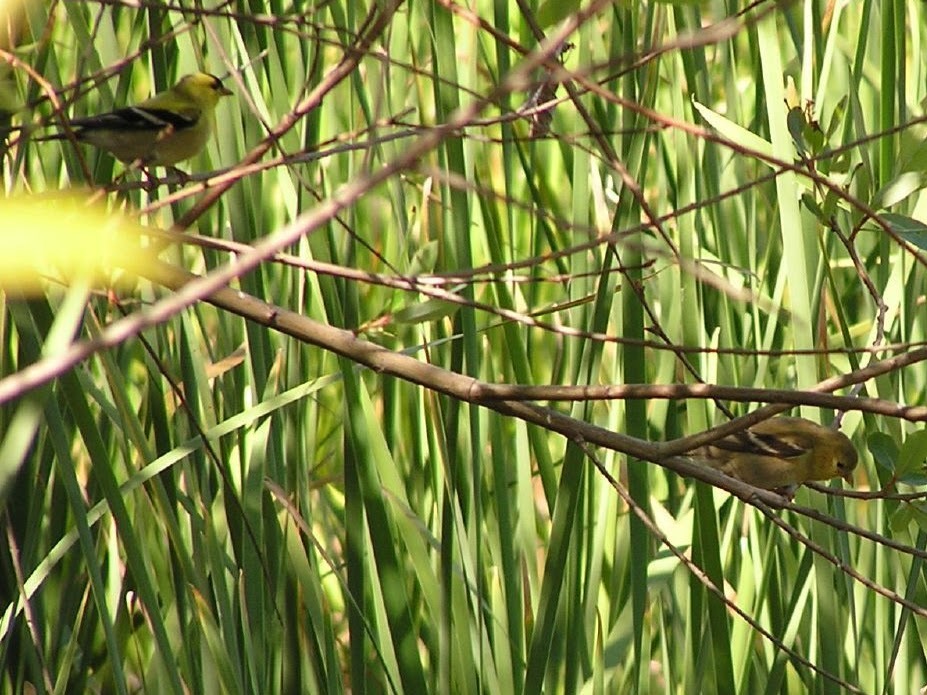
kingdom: Animalia
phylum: Chordata
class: Aves
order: Passeriformes
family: Fringillidae
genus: Spinus
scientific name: Spinus tristis
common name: American goldfinch
